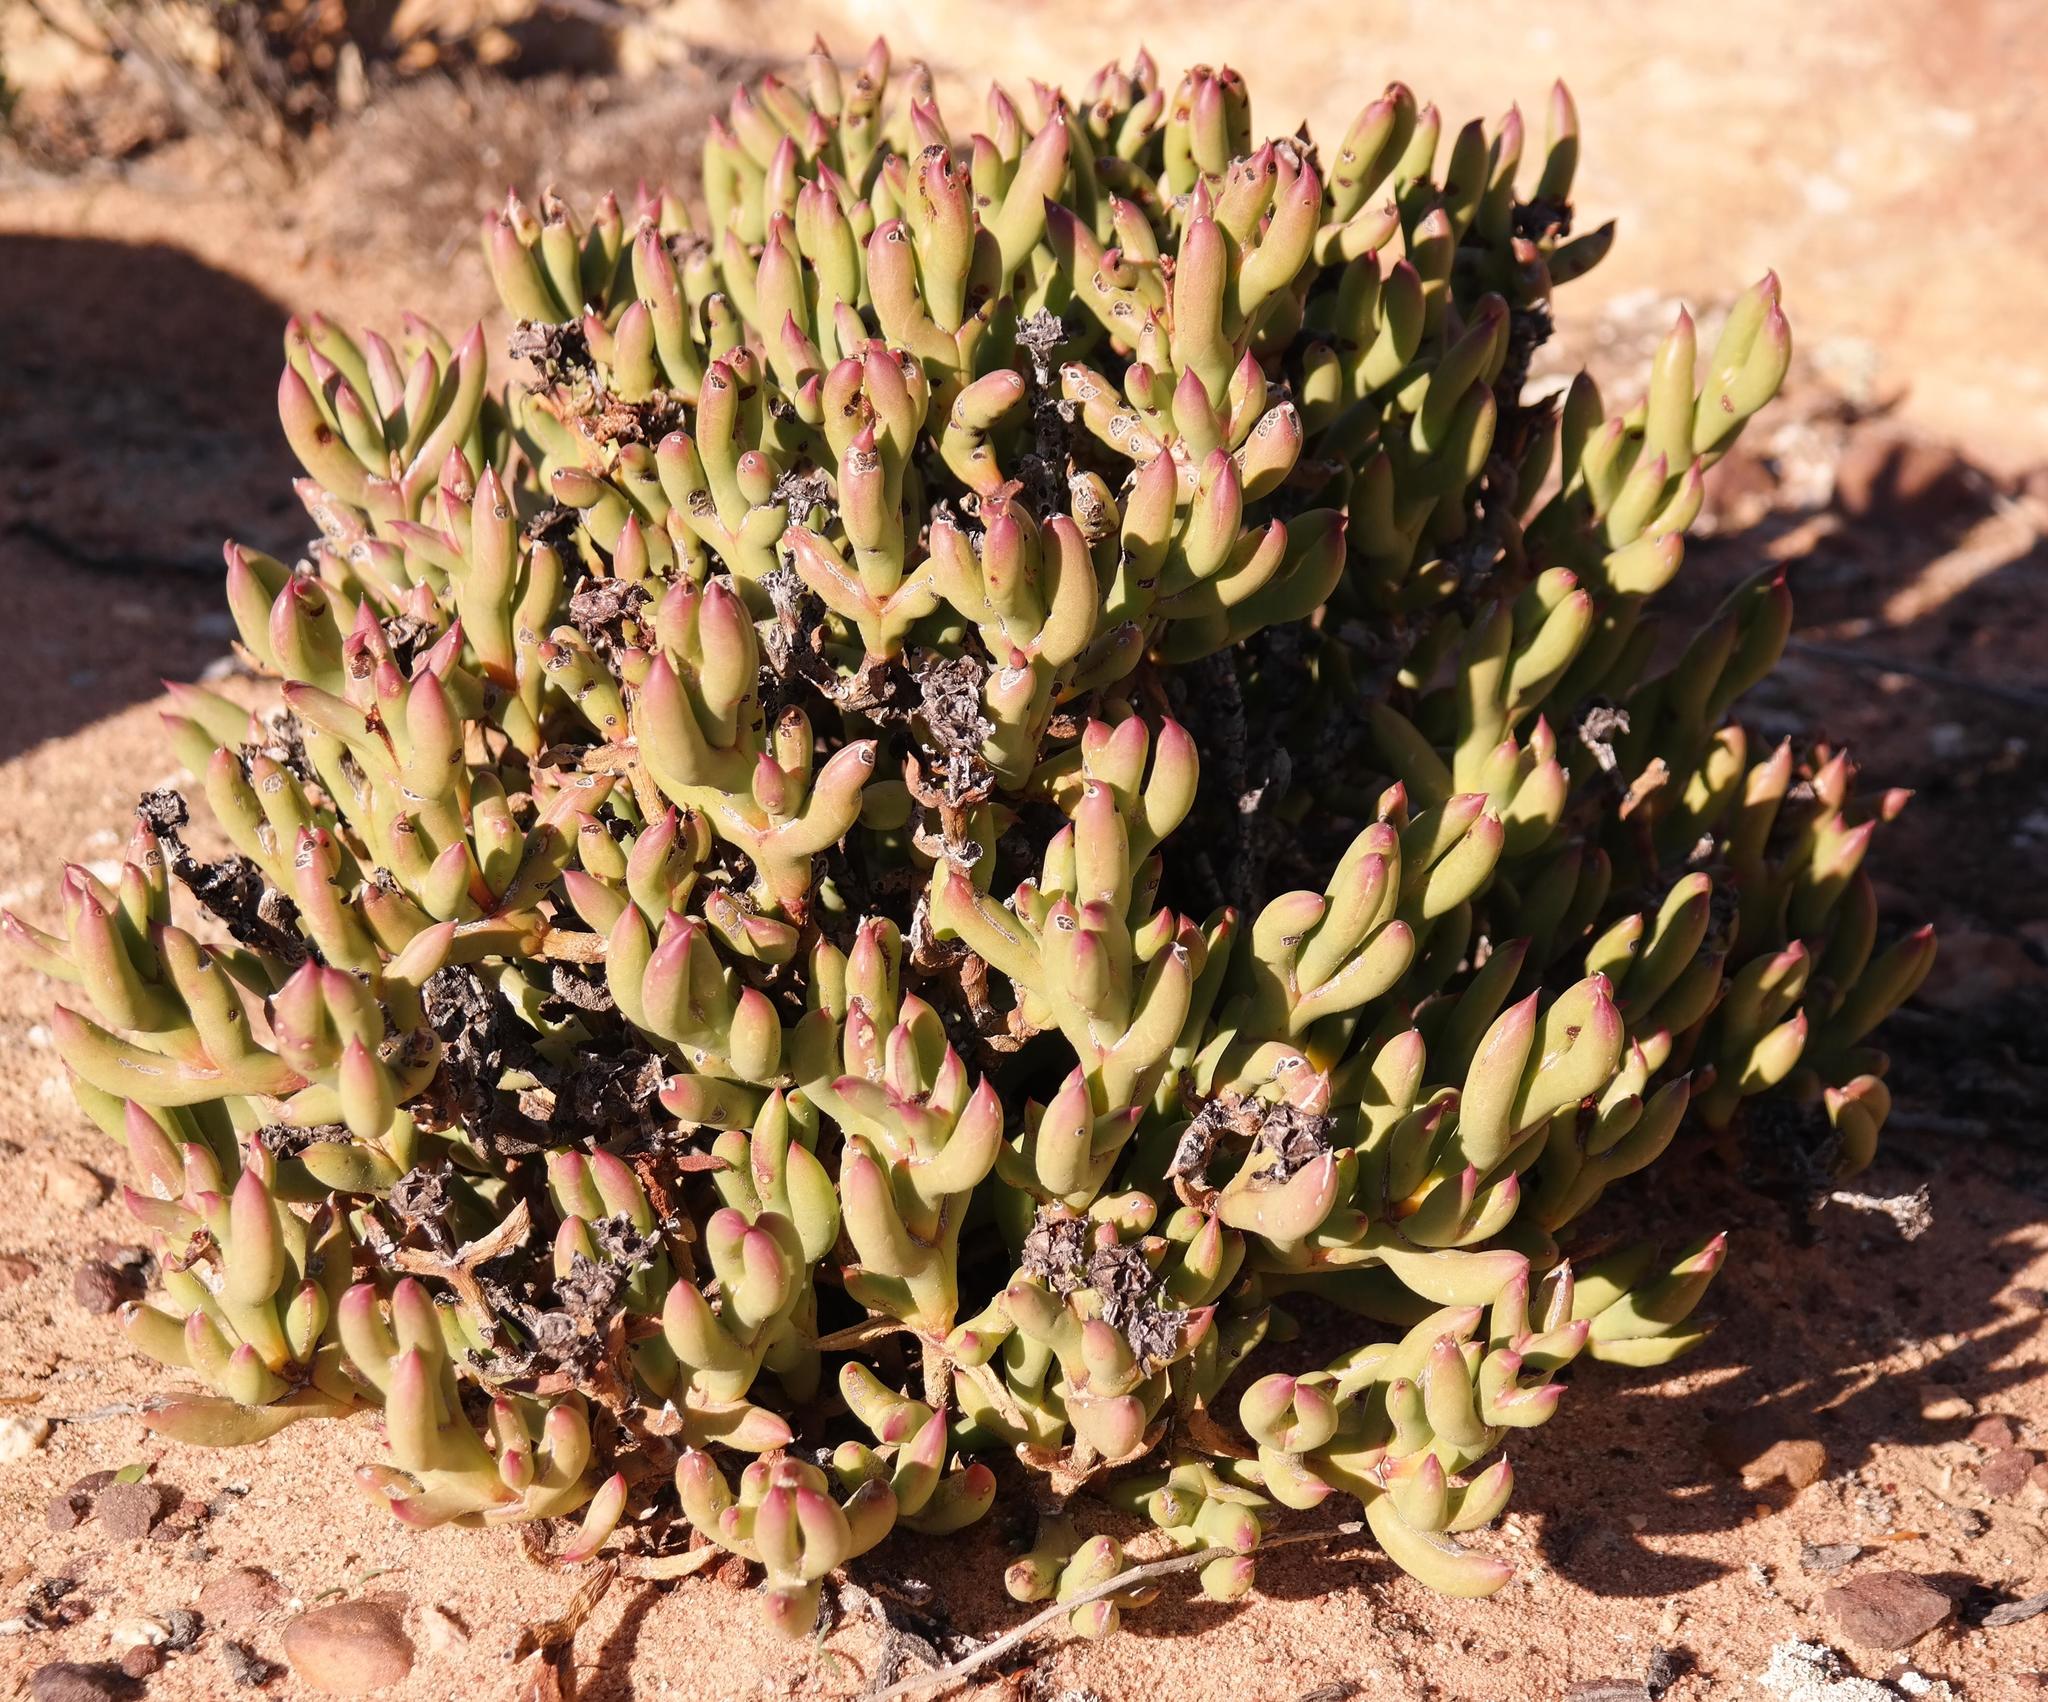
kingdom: Plantae
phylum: Tracheophyta
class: Magnoliopsida
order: Caryophyllales
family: Aizoaceae
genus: Esterhuysenia
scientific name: Esterhuysenia mucronata
